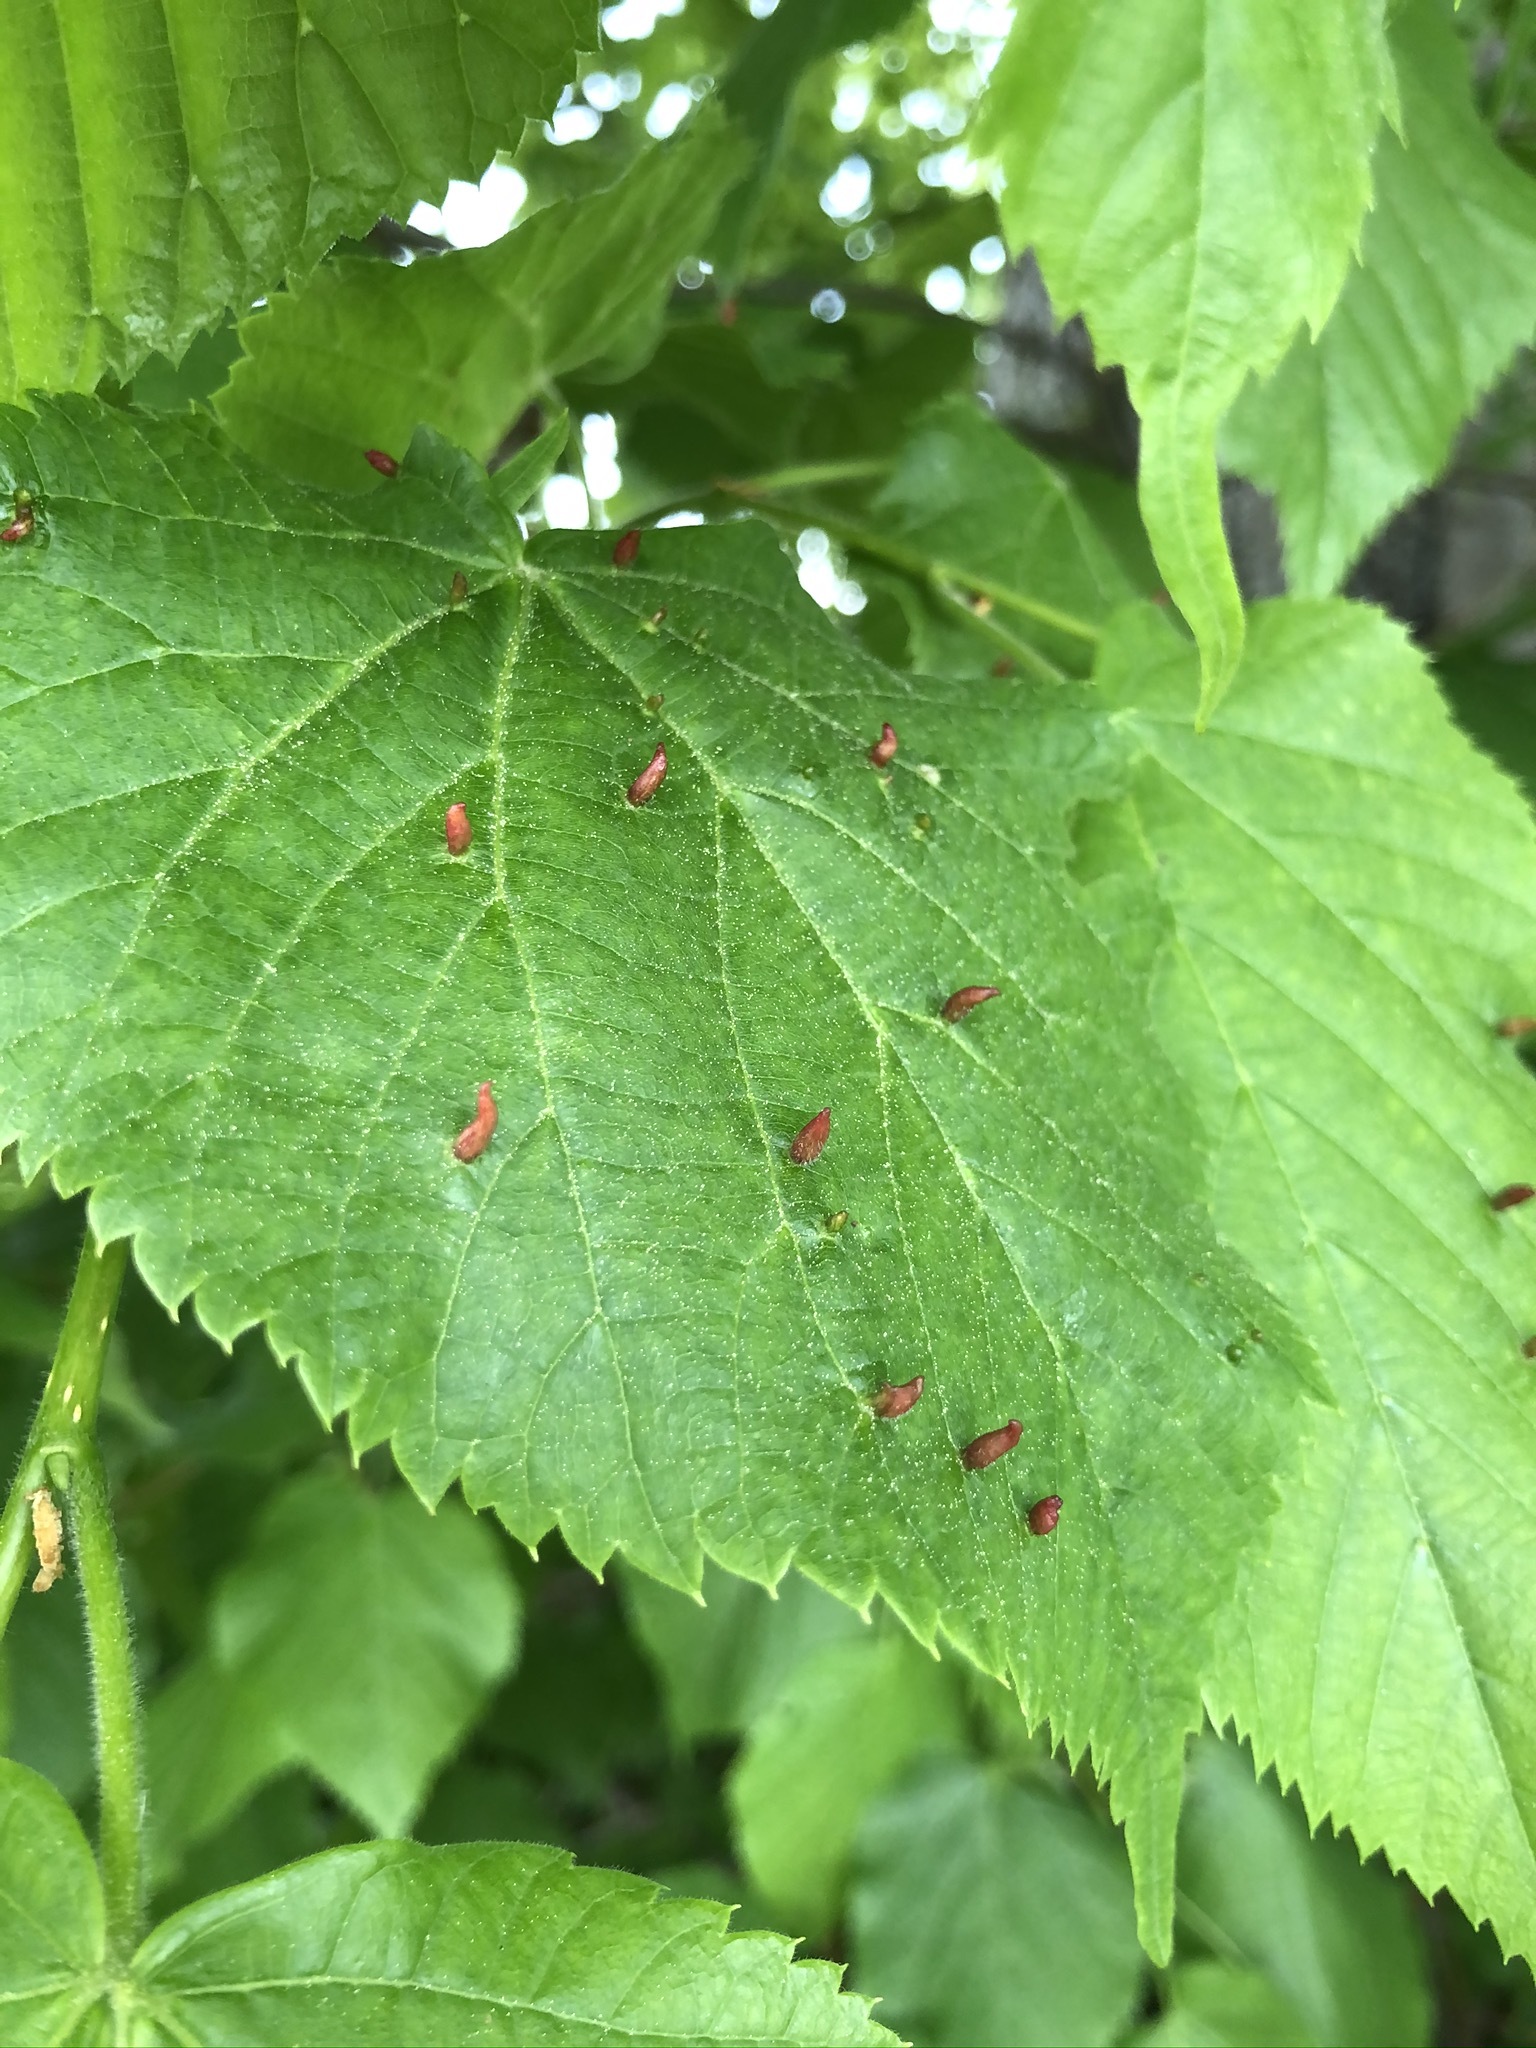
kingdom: Plantae
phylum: Tracheophyta
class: Magnoliopsida
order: Malvales
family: Malvaceae
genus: Tilia
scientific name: Tilia platyphyllos
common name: Large-leaved lime
